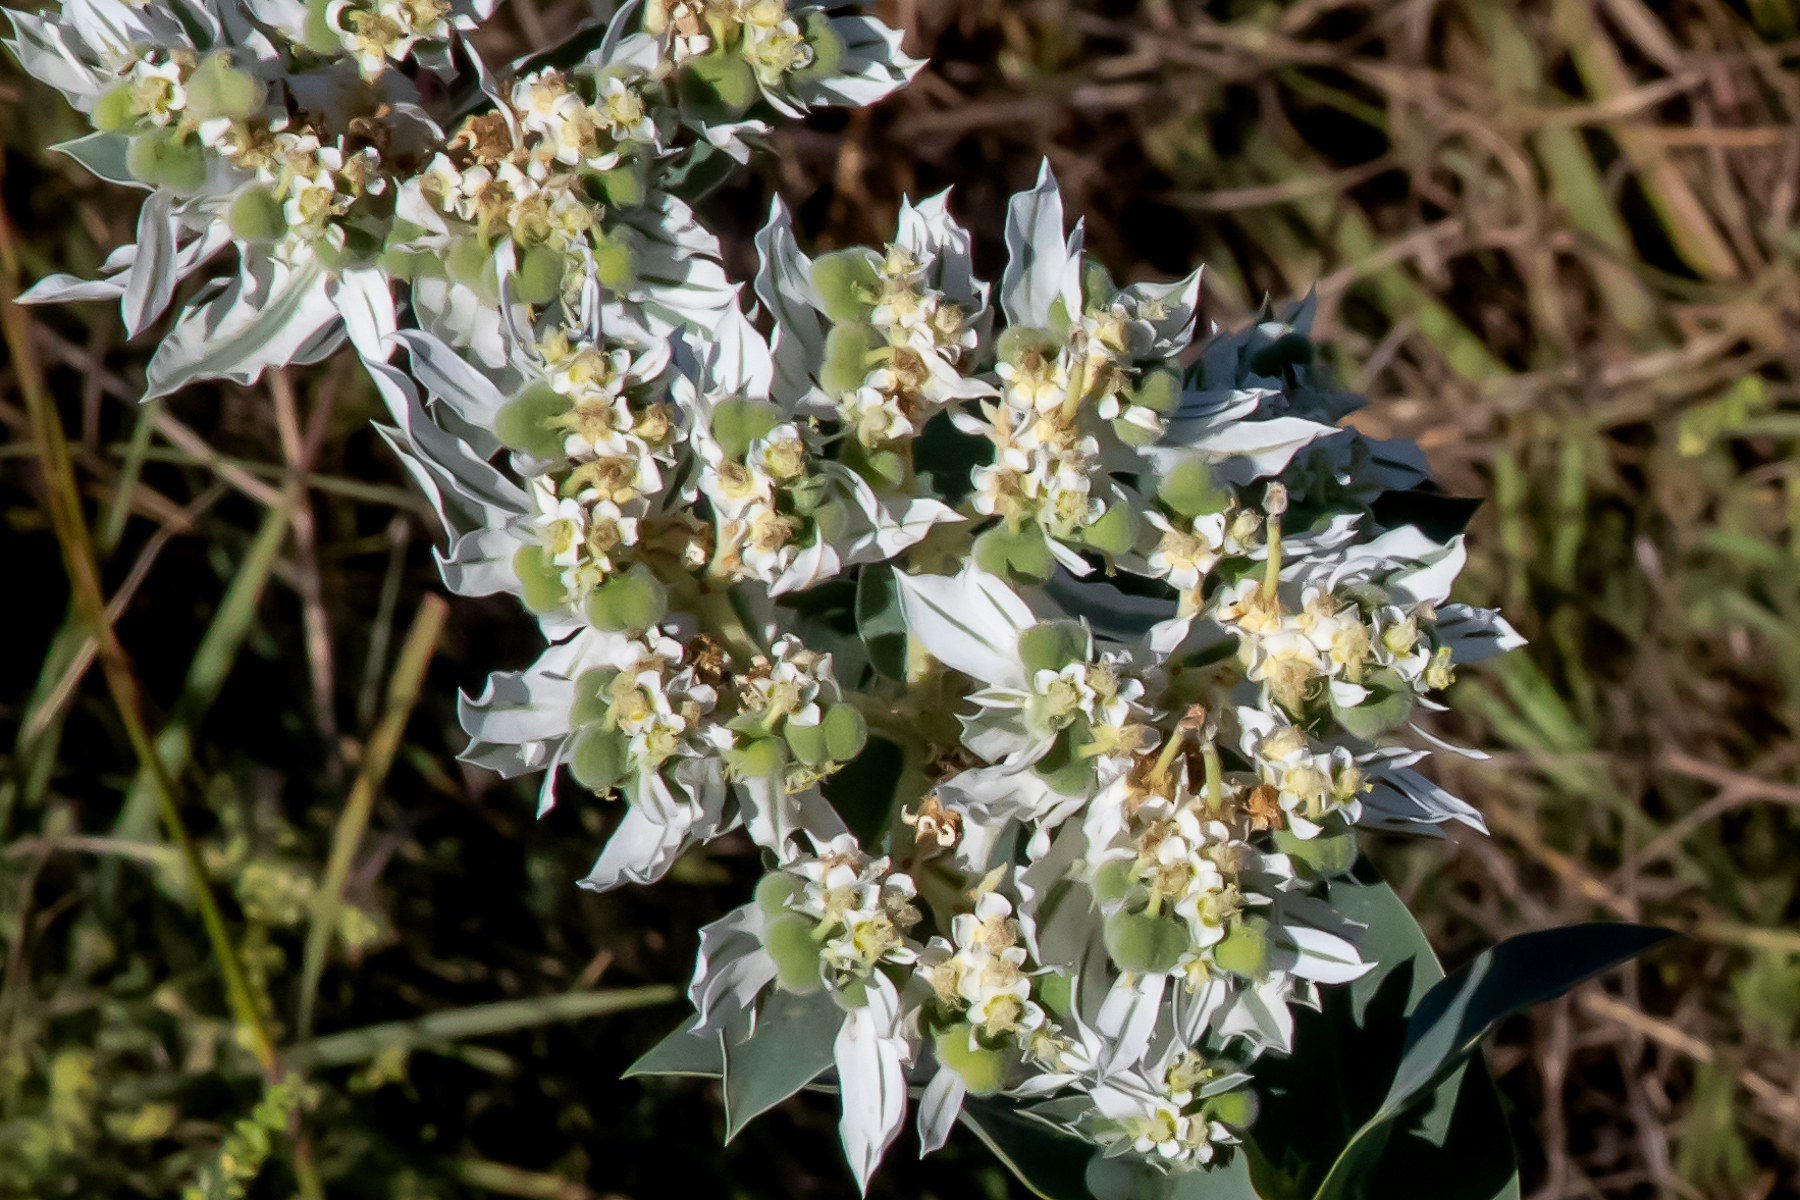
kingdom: Plantae
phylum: Tracheophyta
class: Magnoliopsida
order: Malpighiales
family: Euphorbiaceae
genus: Euphorbia
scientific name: Euphorbia marginata
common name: Ghostweed
